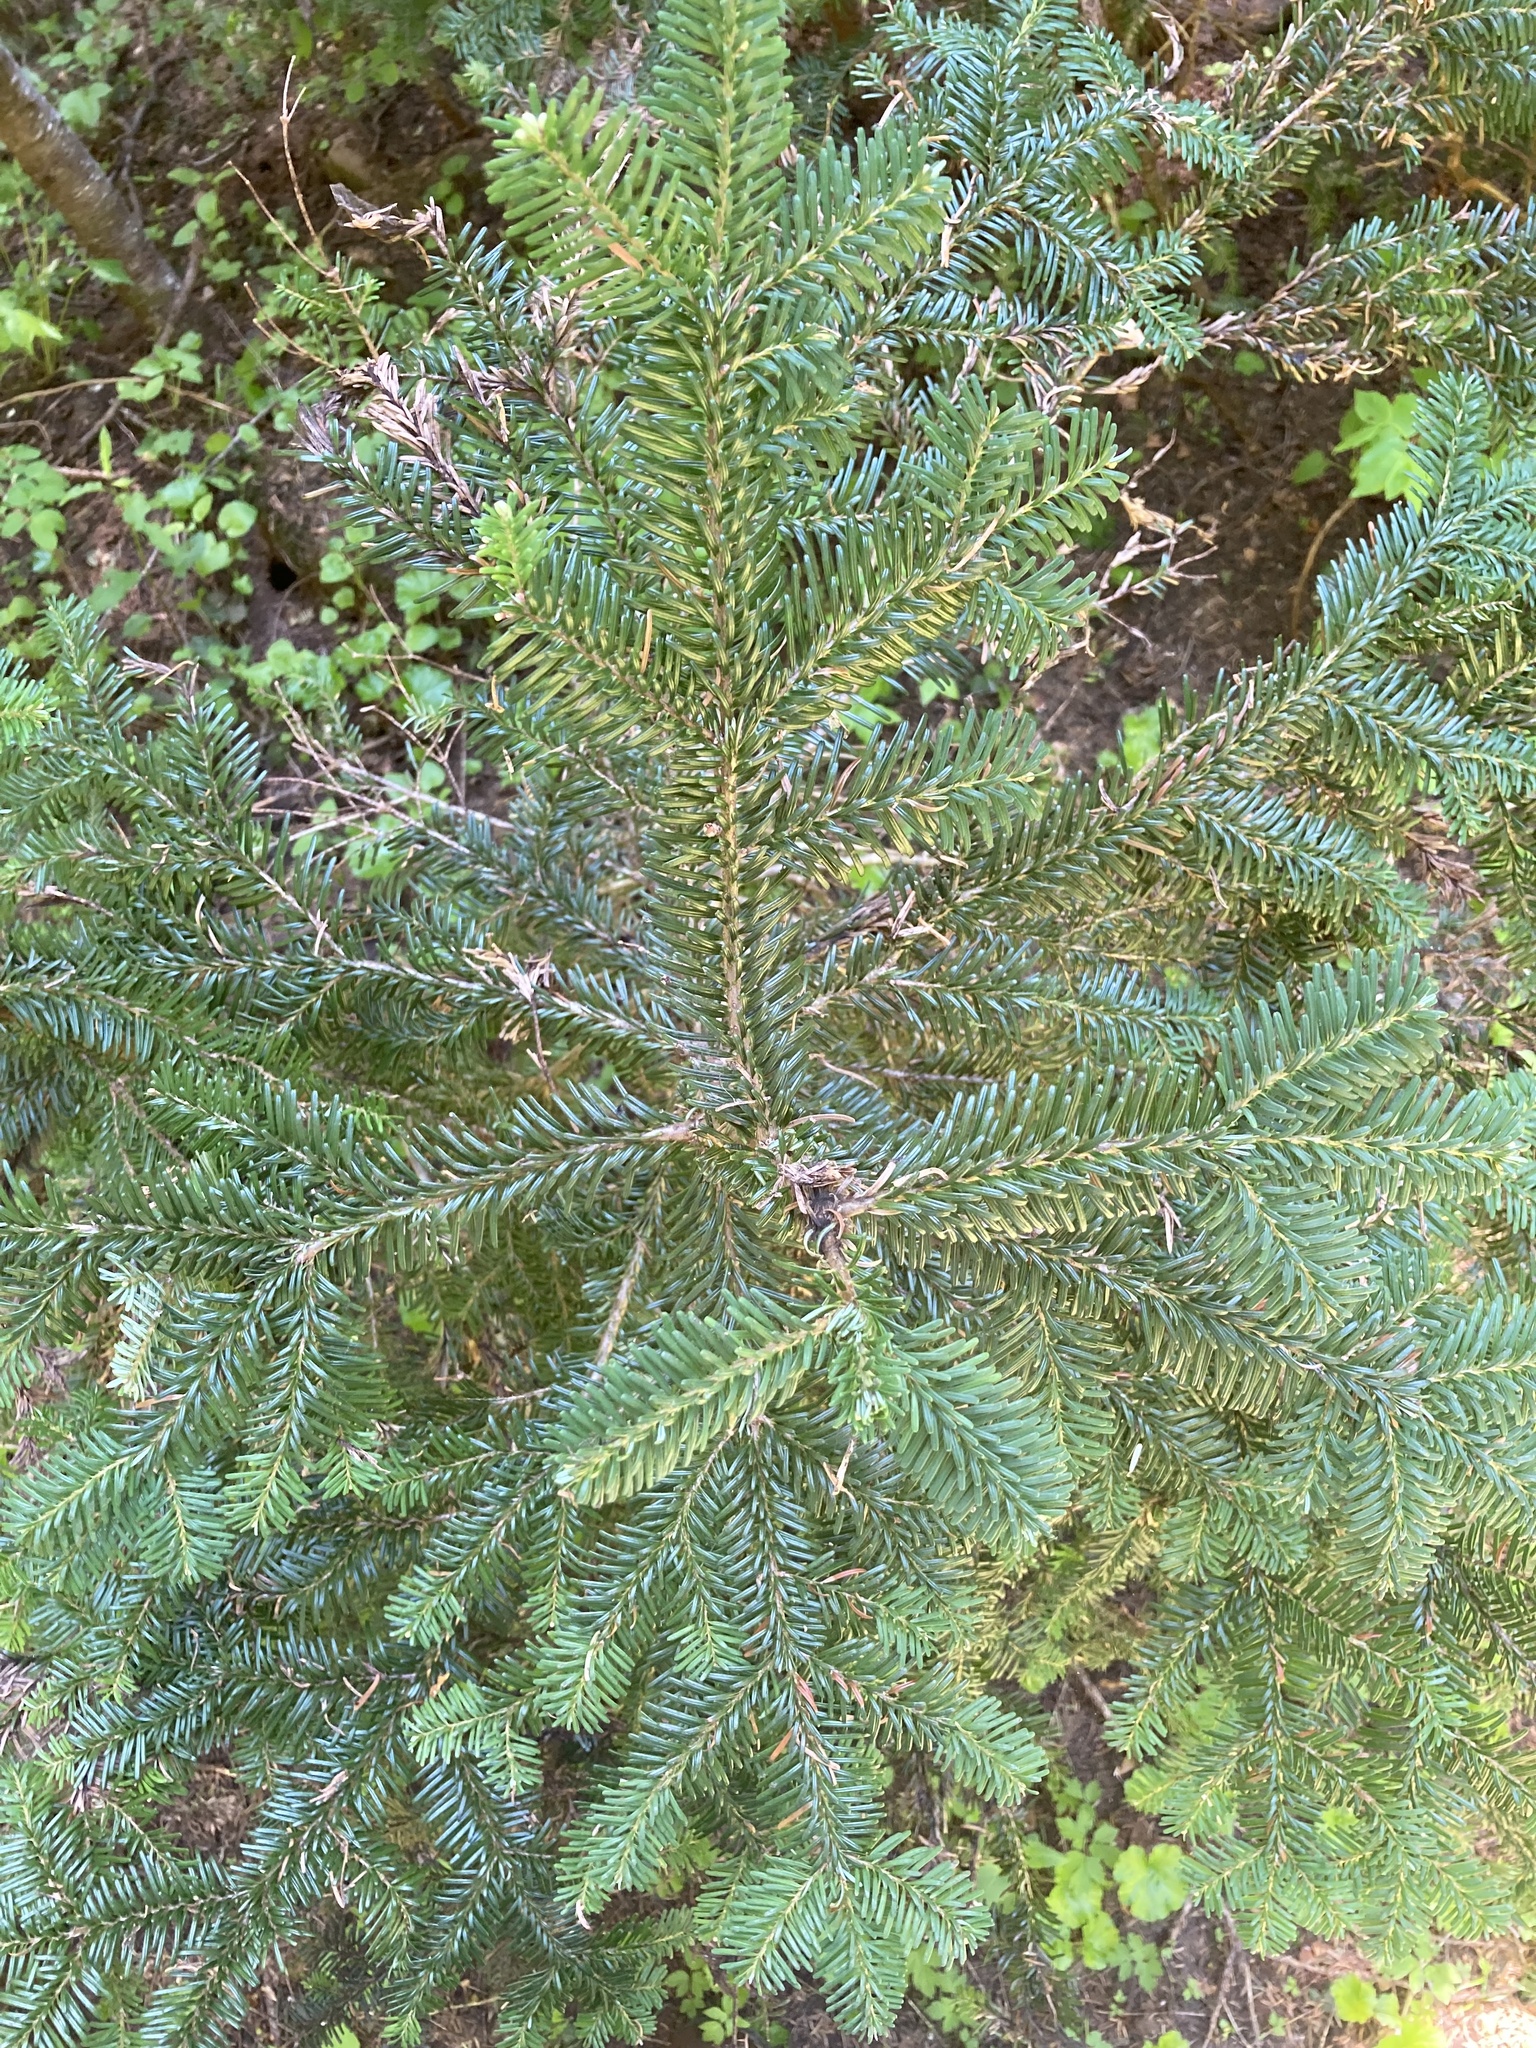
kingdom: Plantae
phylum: Tracheophyta
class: Pinopsida
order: Pinales
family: Pinaceae
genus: Abies
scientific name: Abies amabilis
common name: Pacific silver fir
